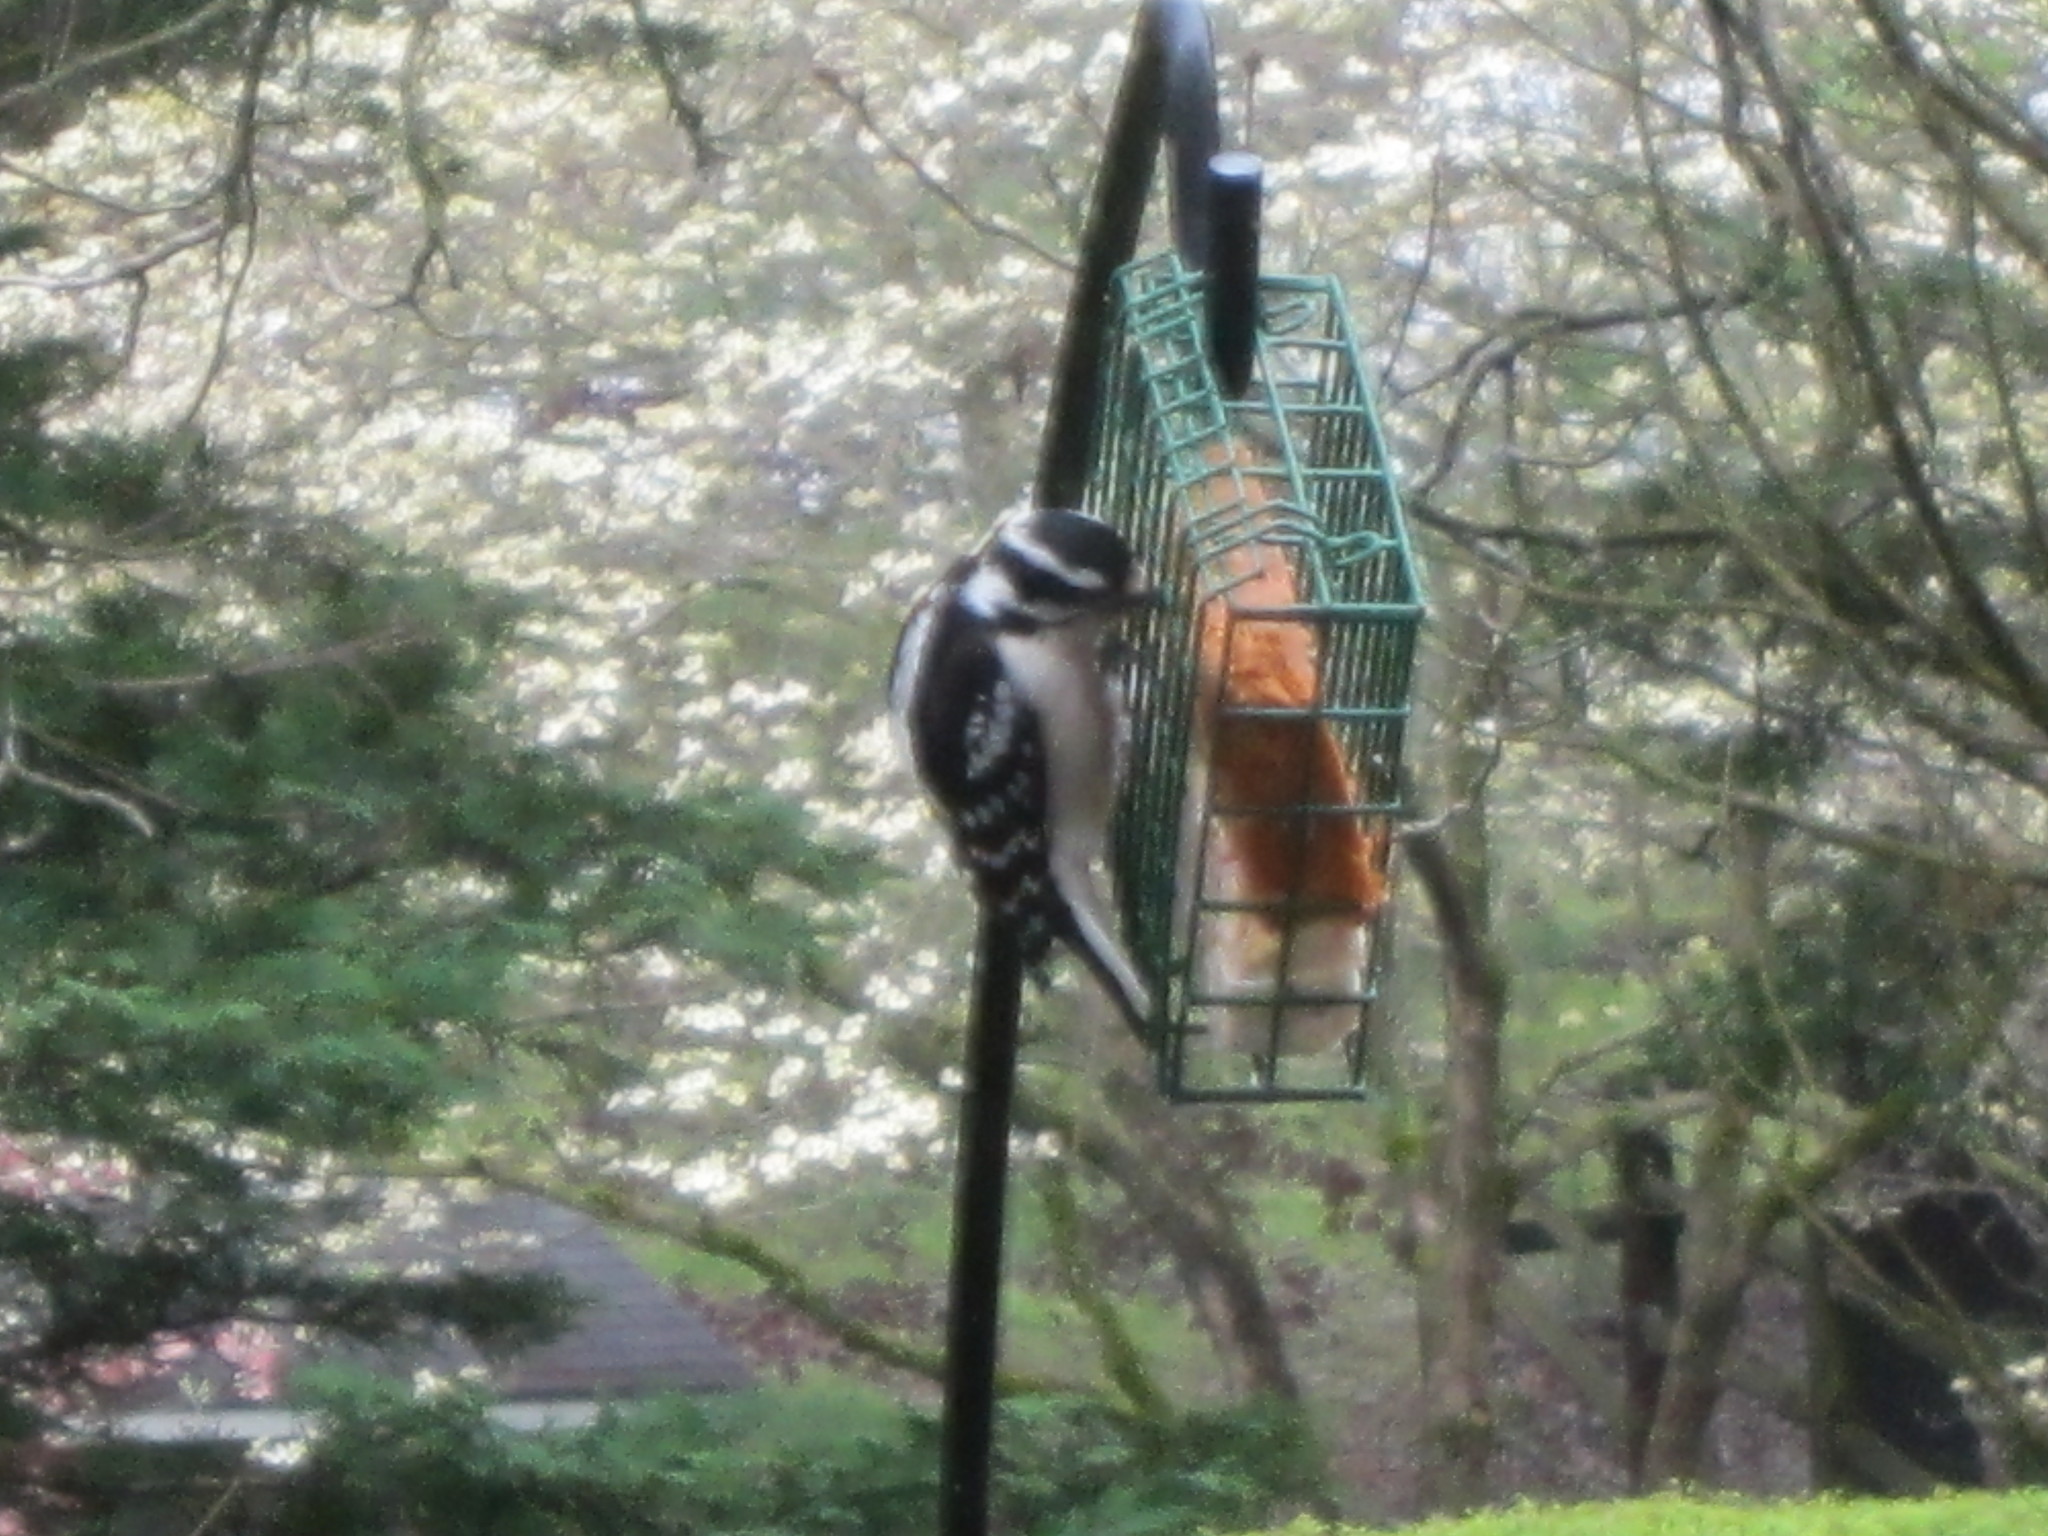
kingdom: Animalia
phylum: Chordata
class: Aves
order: Piciformes
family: Picidae
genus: Dryobates
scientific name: Dryobates pubescens
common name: Downy woodpecker
